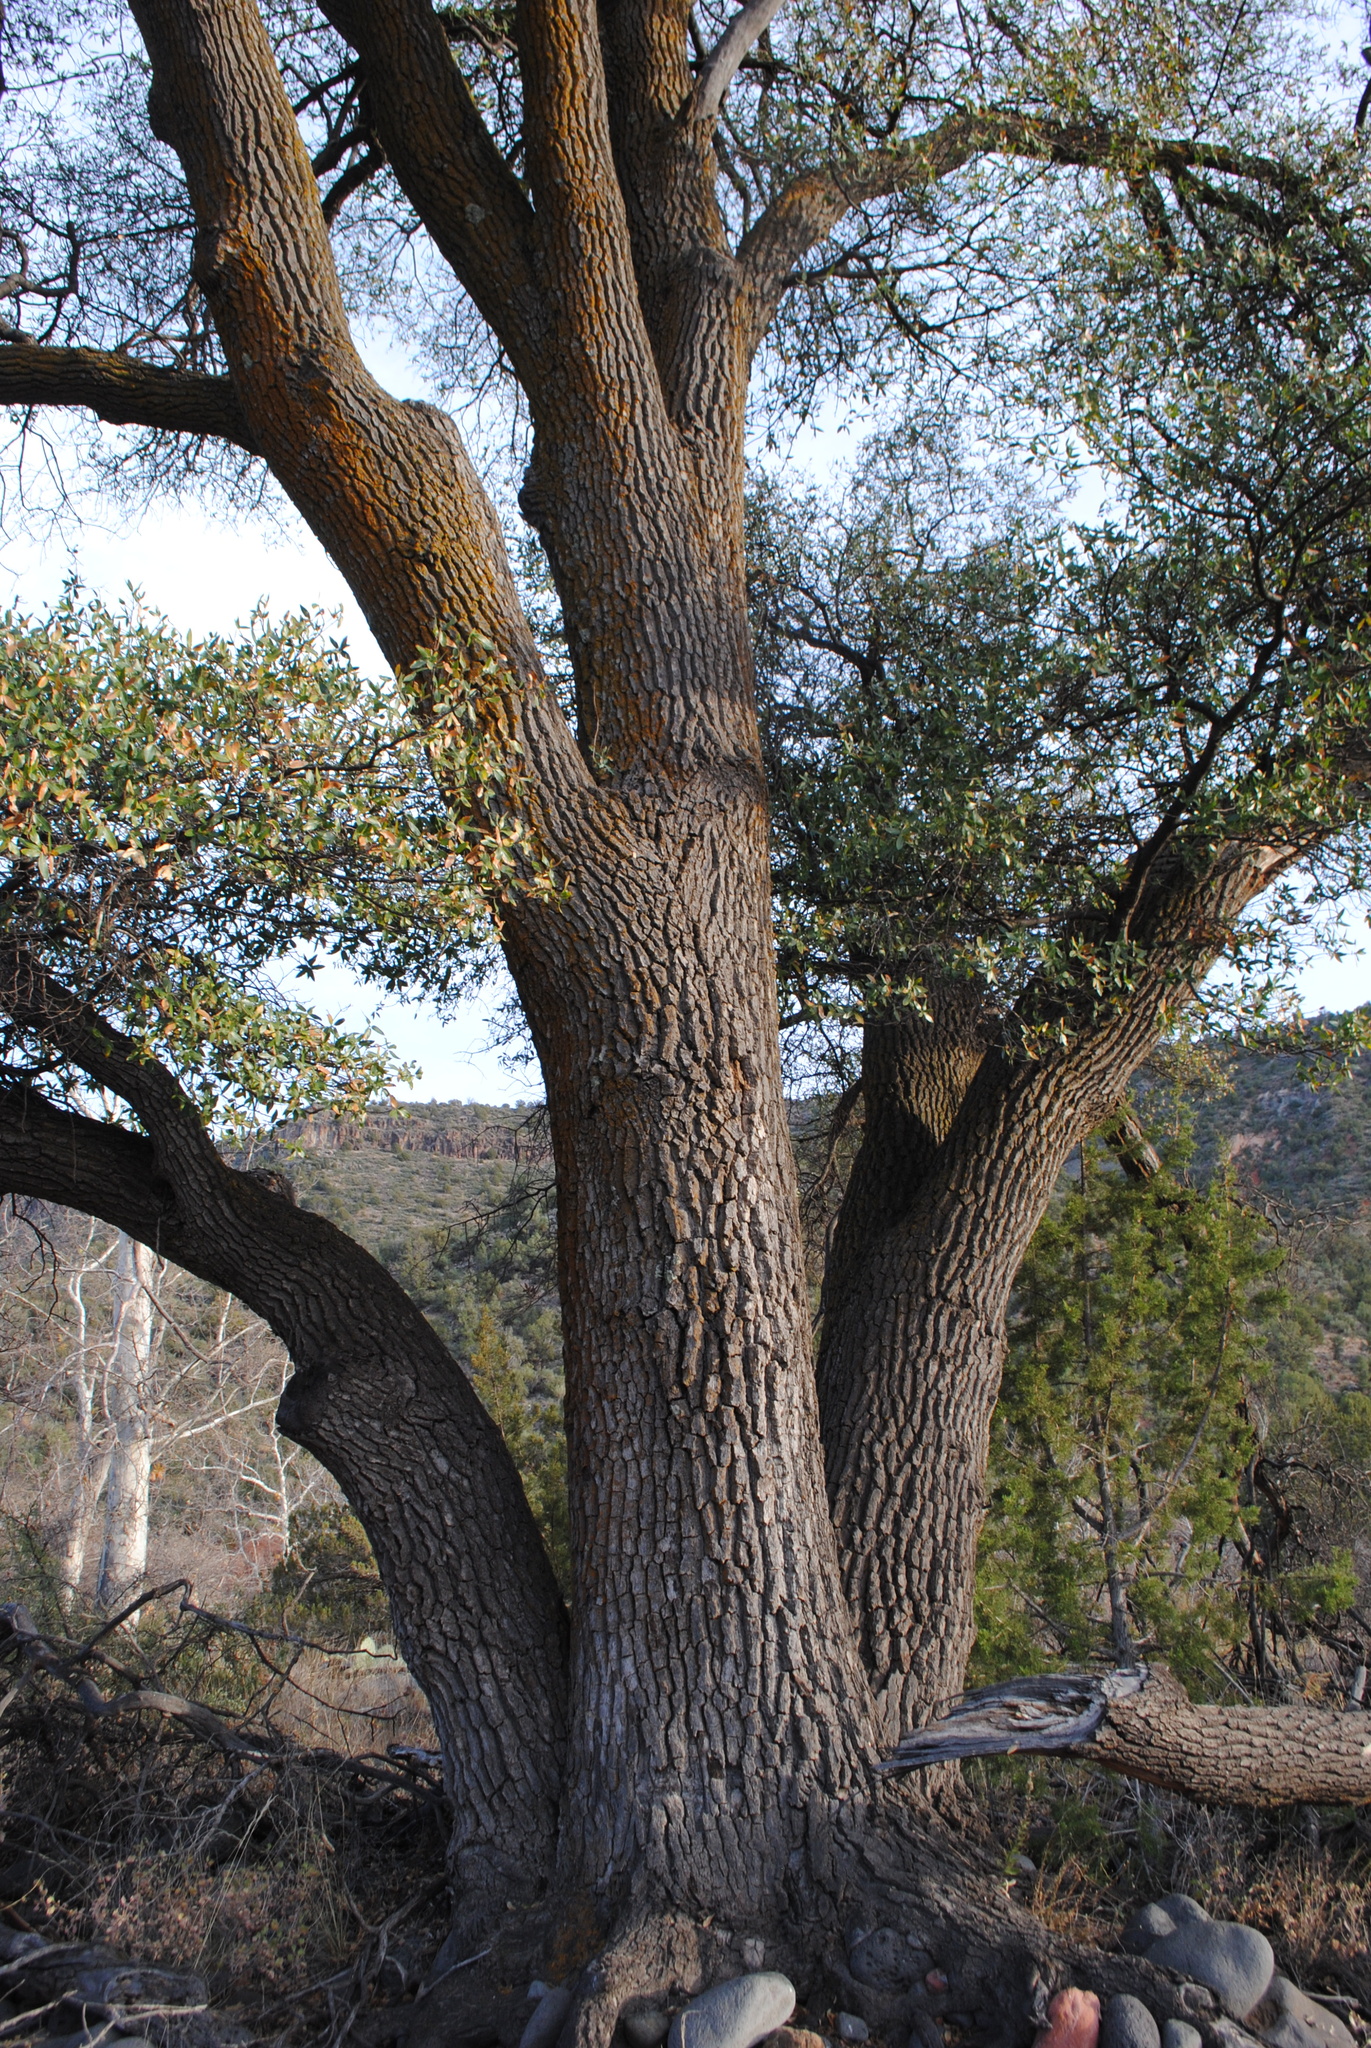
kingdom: Plantae
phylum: Tracheophyta
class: Magnoliopsida
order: Fagales
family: Fagaceae
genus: Quercus
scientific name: Quercus emoryi
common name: Emory oak
